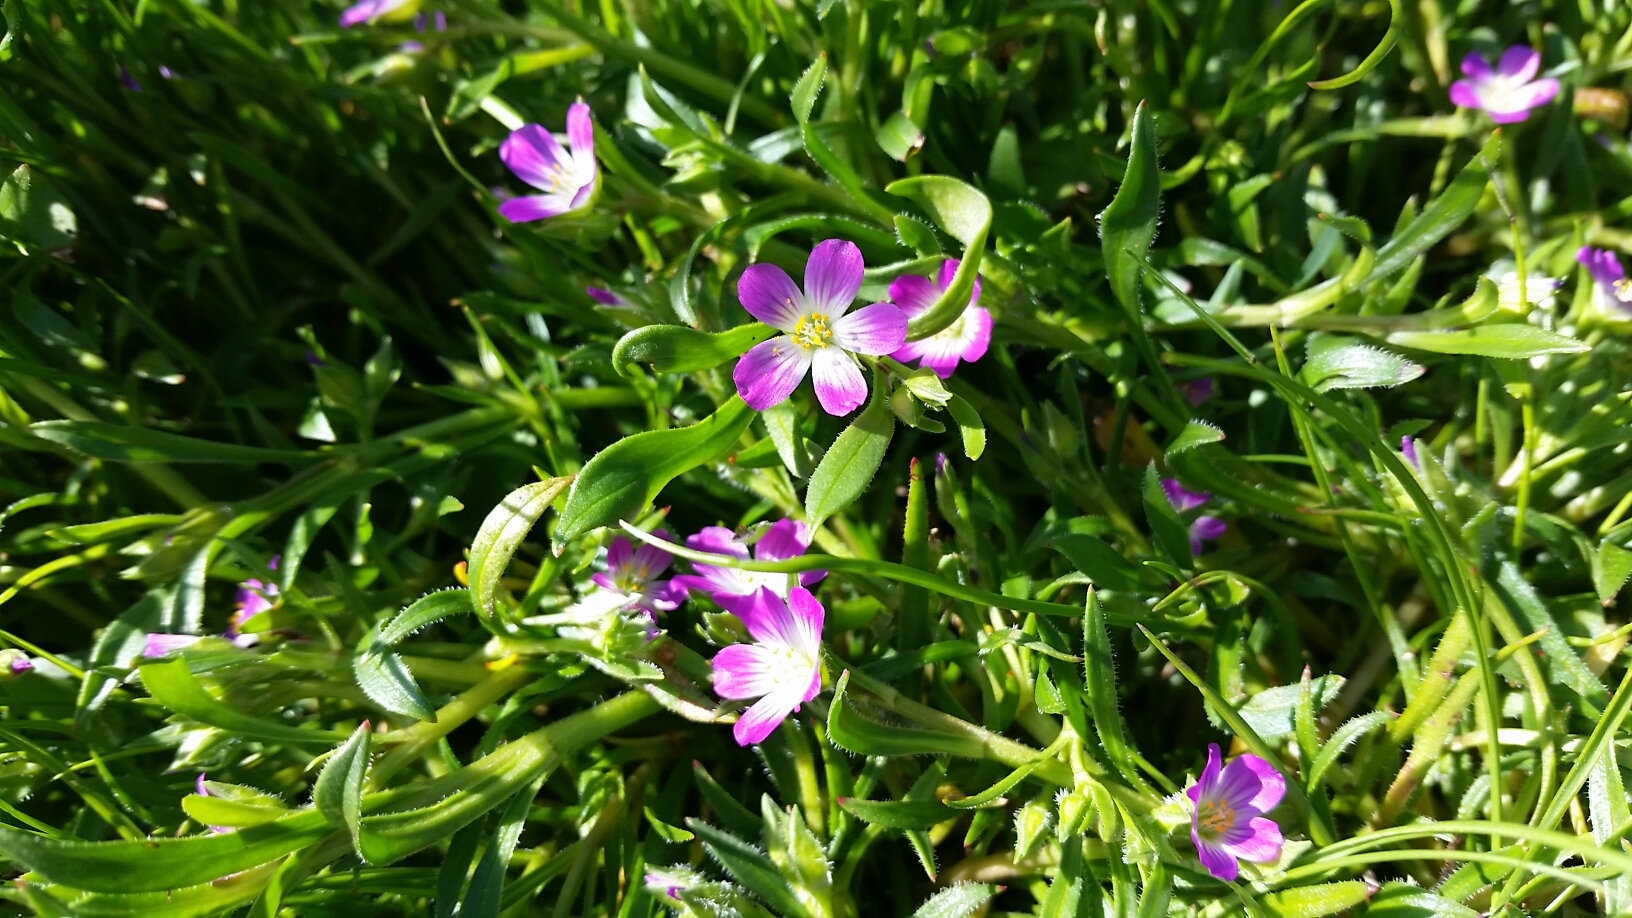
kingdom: Plantae
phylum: Tracheophyta
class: Magnoliopsida
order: Caryophyllales
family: Montiaceae
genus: Calandrinia
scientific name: Calandrinia menziesii
